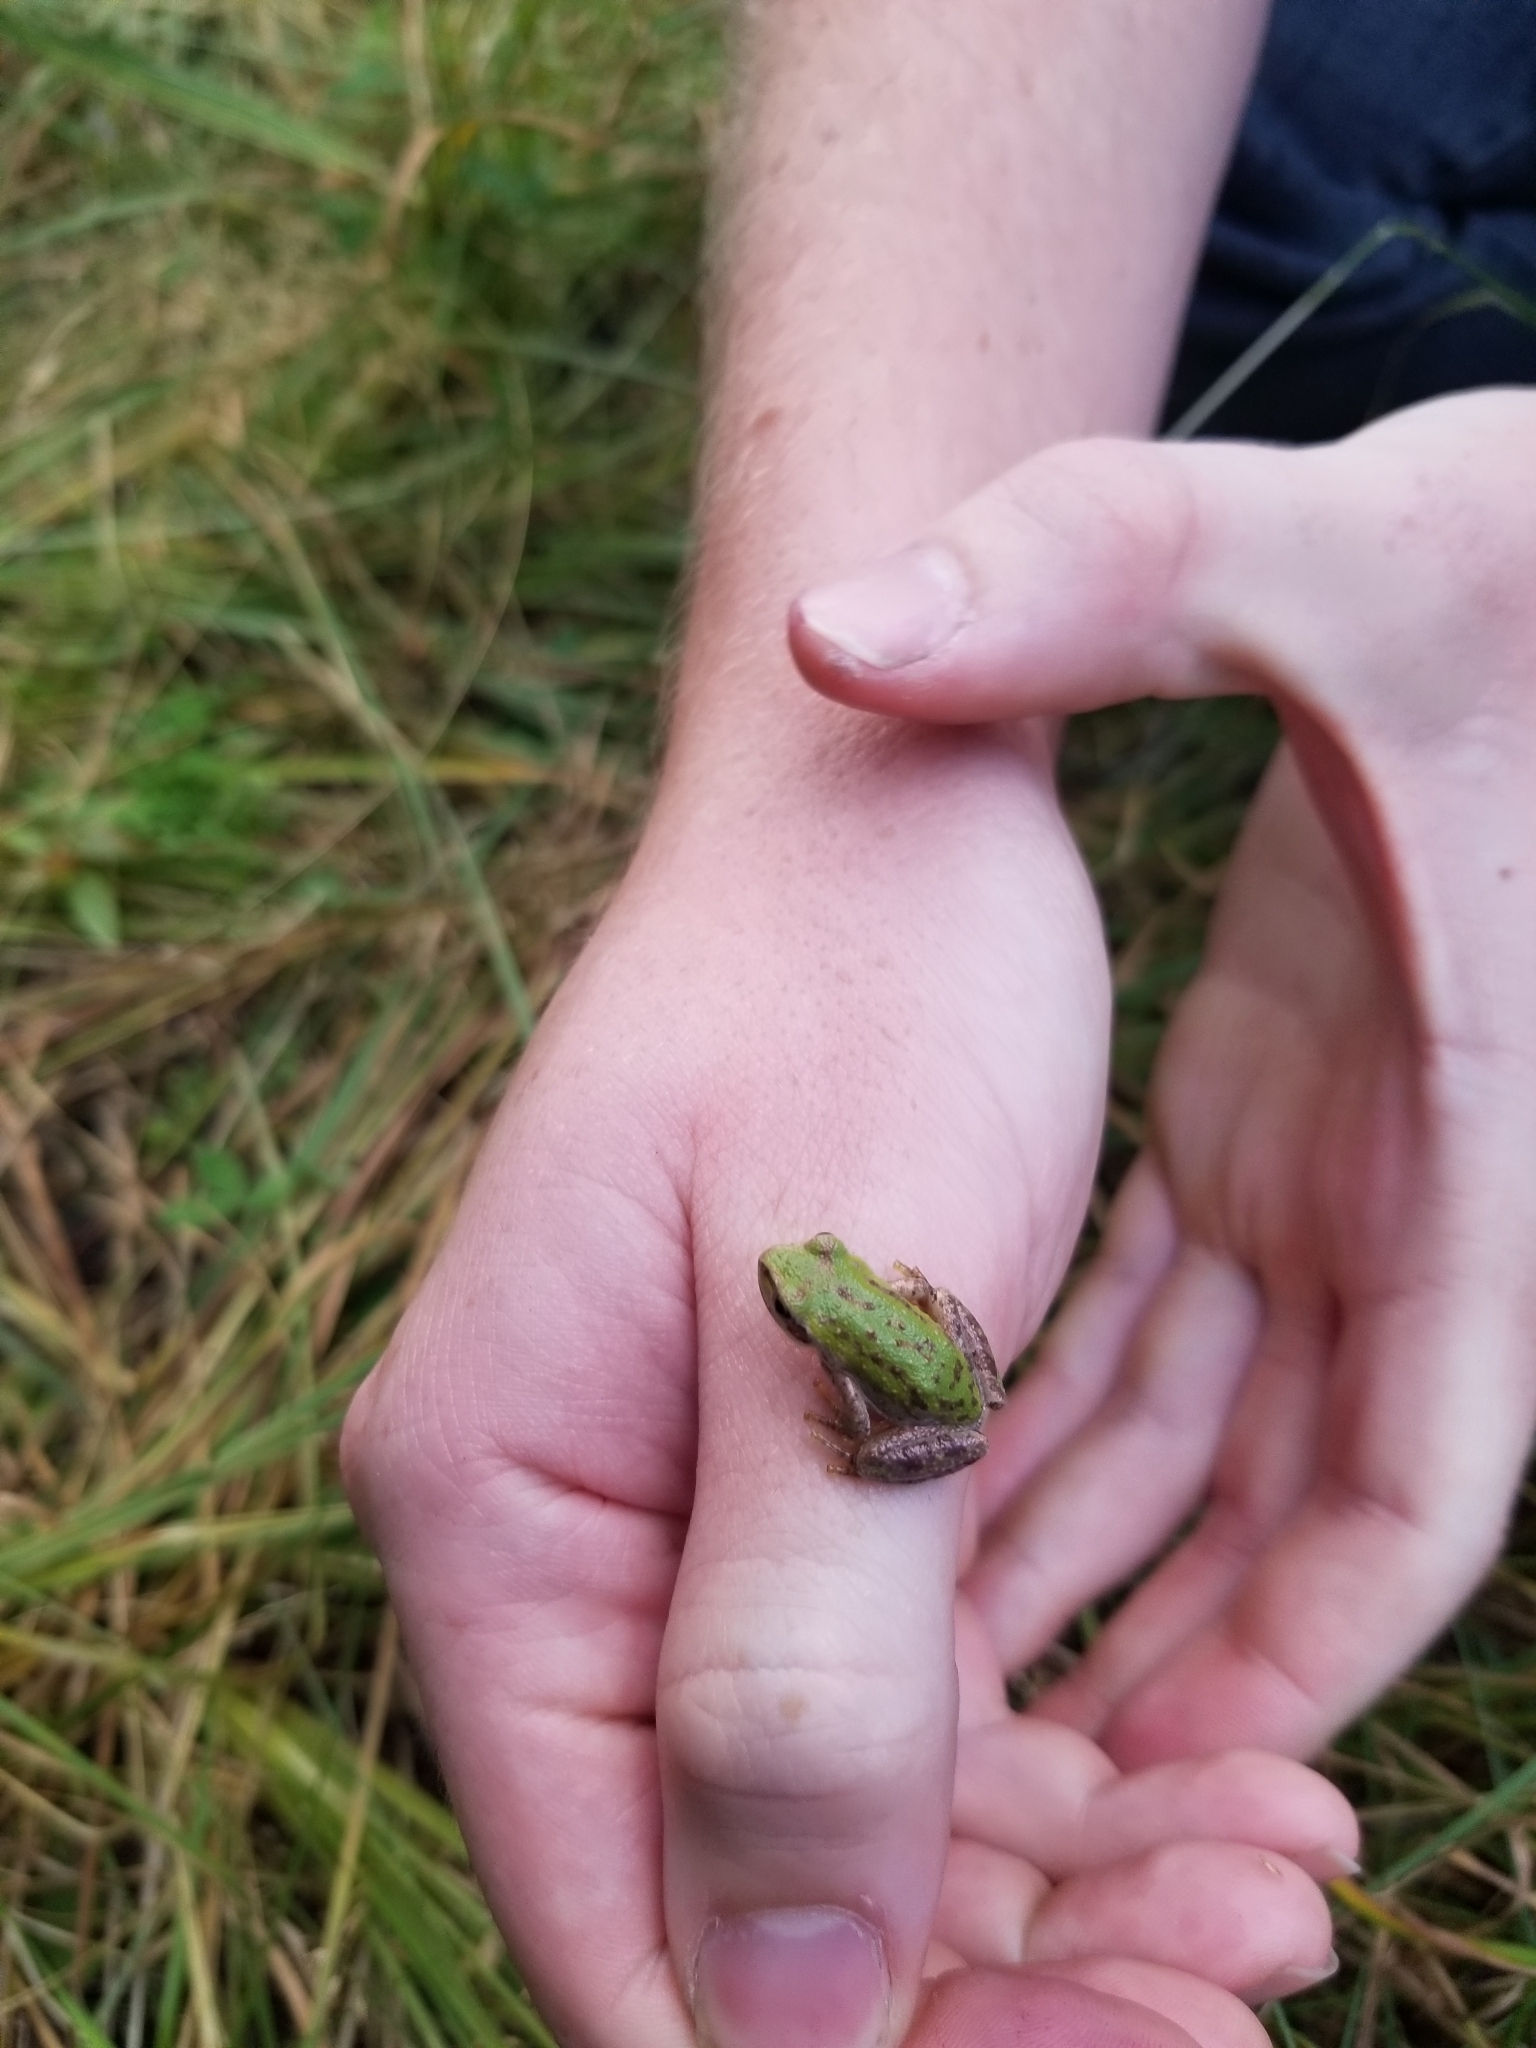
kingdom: Animalia
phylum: Chordata
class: Amphibia
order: Anura
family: Hylidae
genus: Pseudacris
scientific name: Pseudacris regilla
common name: Pacific chorus frog
